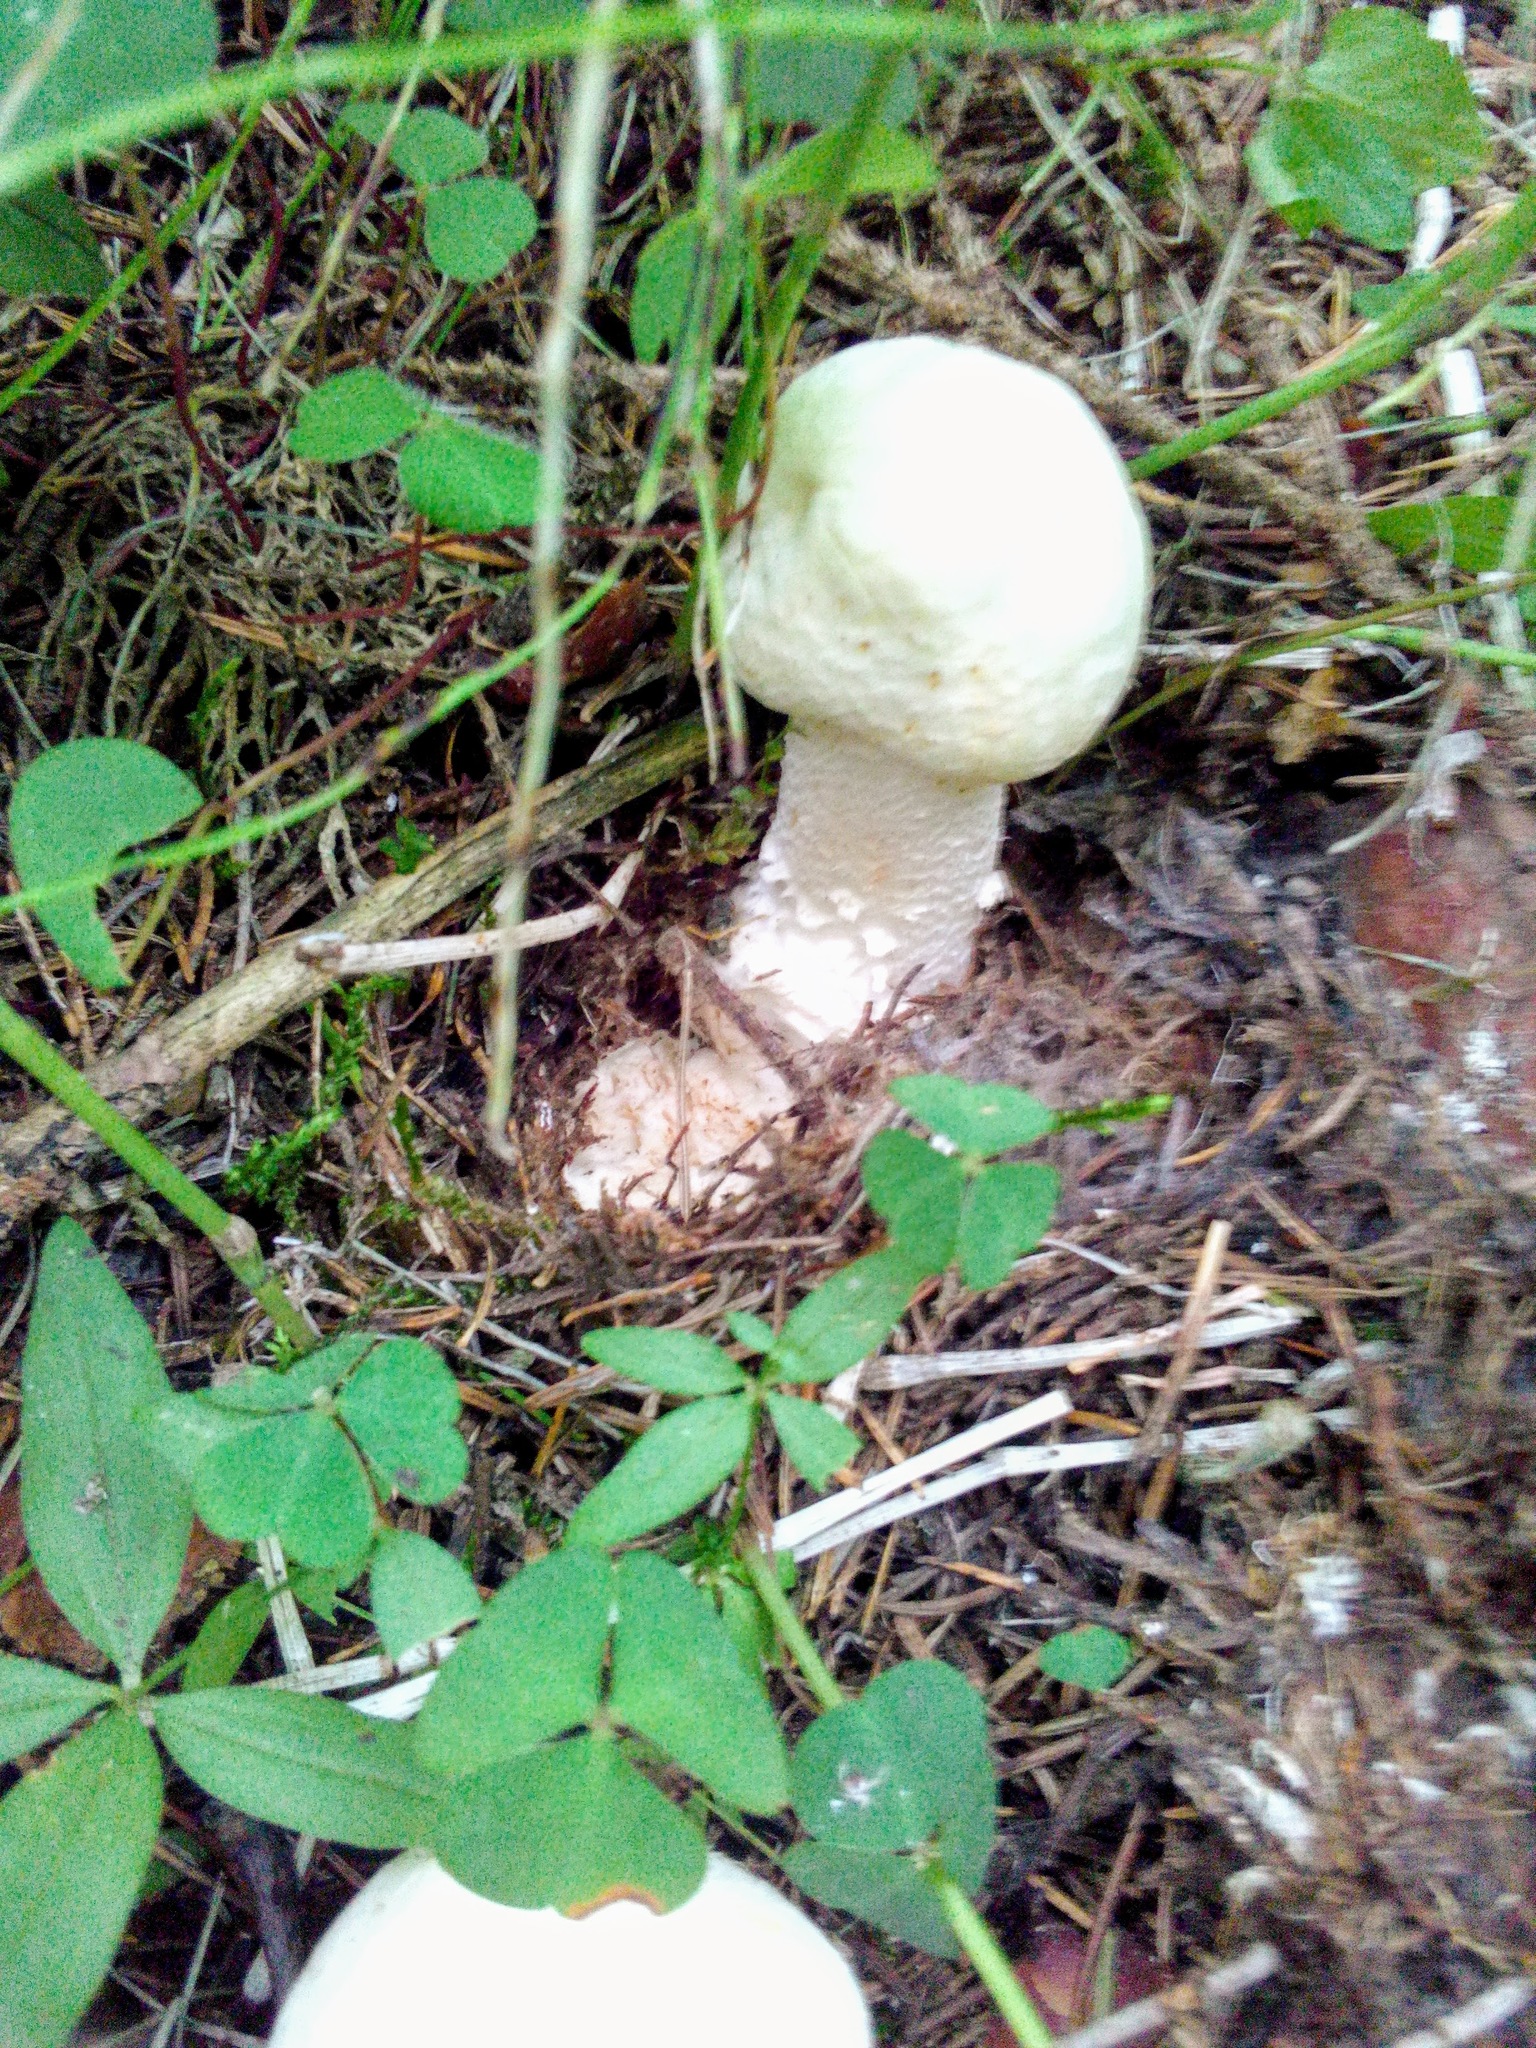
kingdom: Fungi
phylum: Basidiomycota
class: Agaricomycetes
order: Agaricales
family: Agaricaceae
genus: Agaricus
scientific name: Agaricus xanthodermus
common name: Yellow stainer
